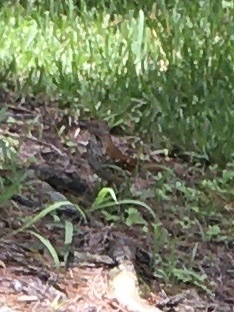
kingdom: Animalia
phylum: Chordata
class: Aves
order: Passeriformes
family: Mimidae
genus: Toxostoma
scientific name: Toxostoma rufum
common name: Brown thrasher
